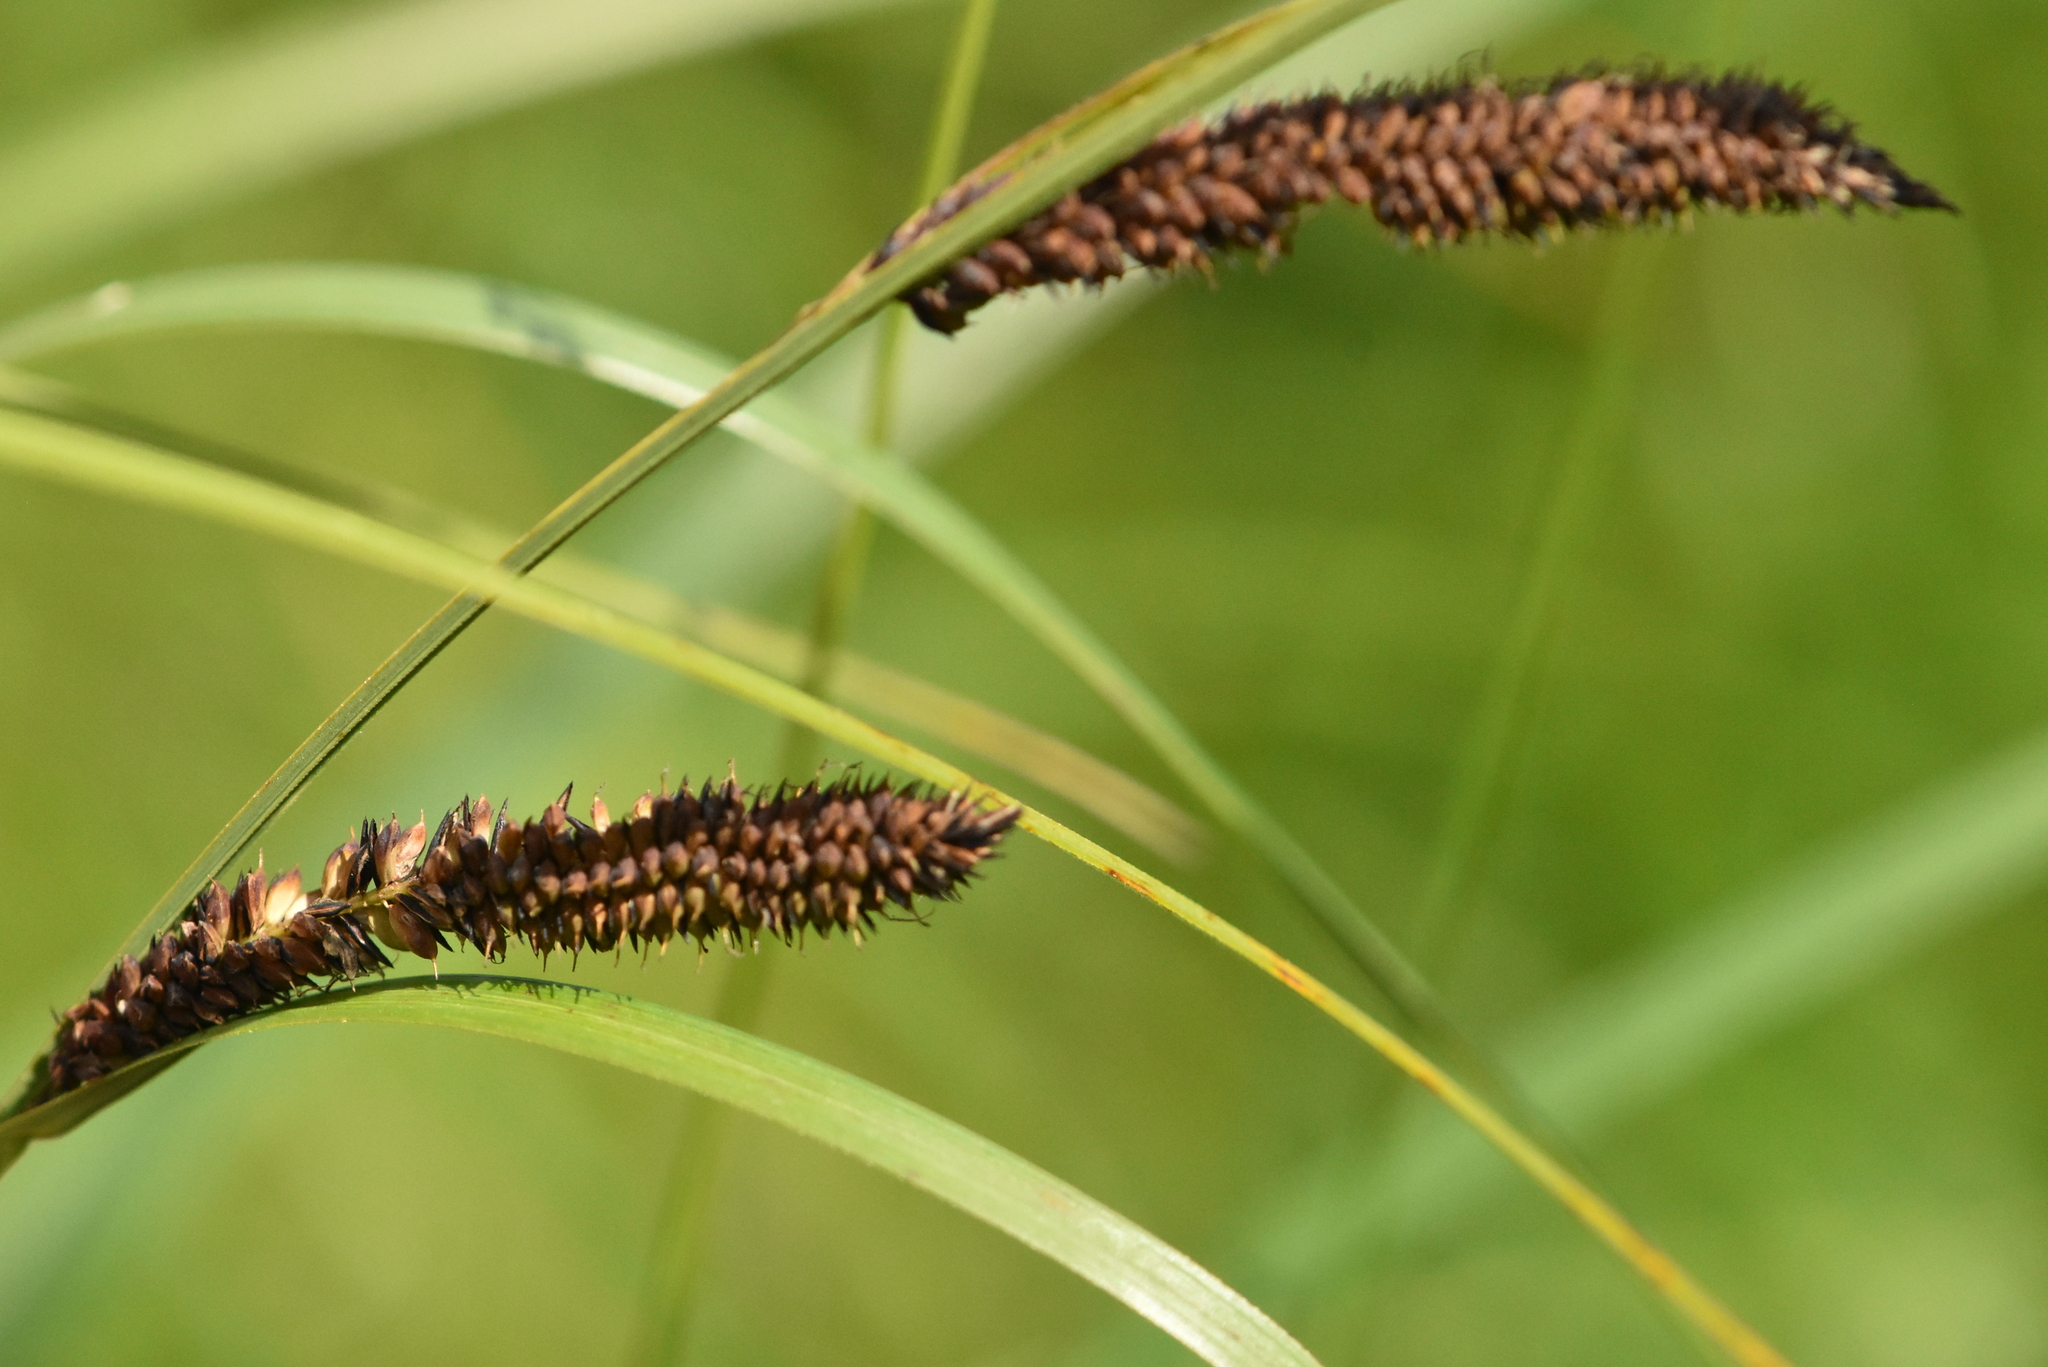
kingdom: Plantae
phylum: Tracheophyta
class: Liliopsida
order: Poales
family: Cyperaceae
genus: Carex
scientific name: Carex acuta
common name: Slender tufted-sedge
